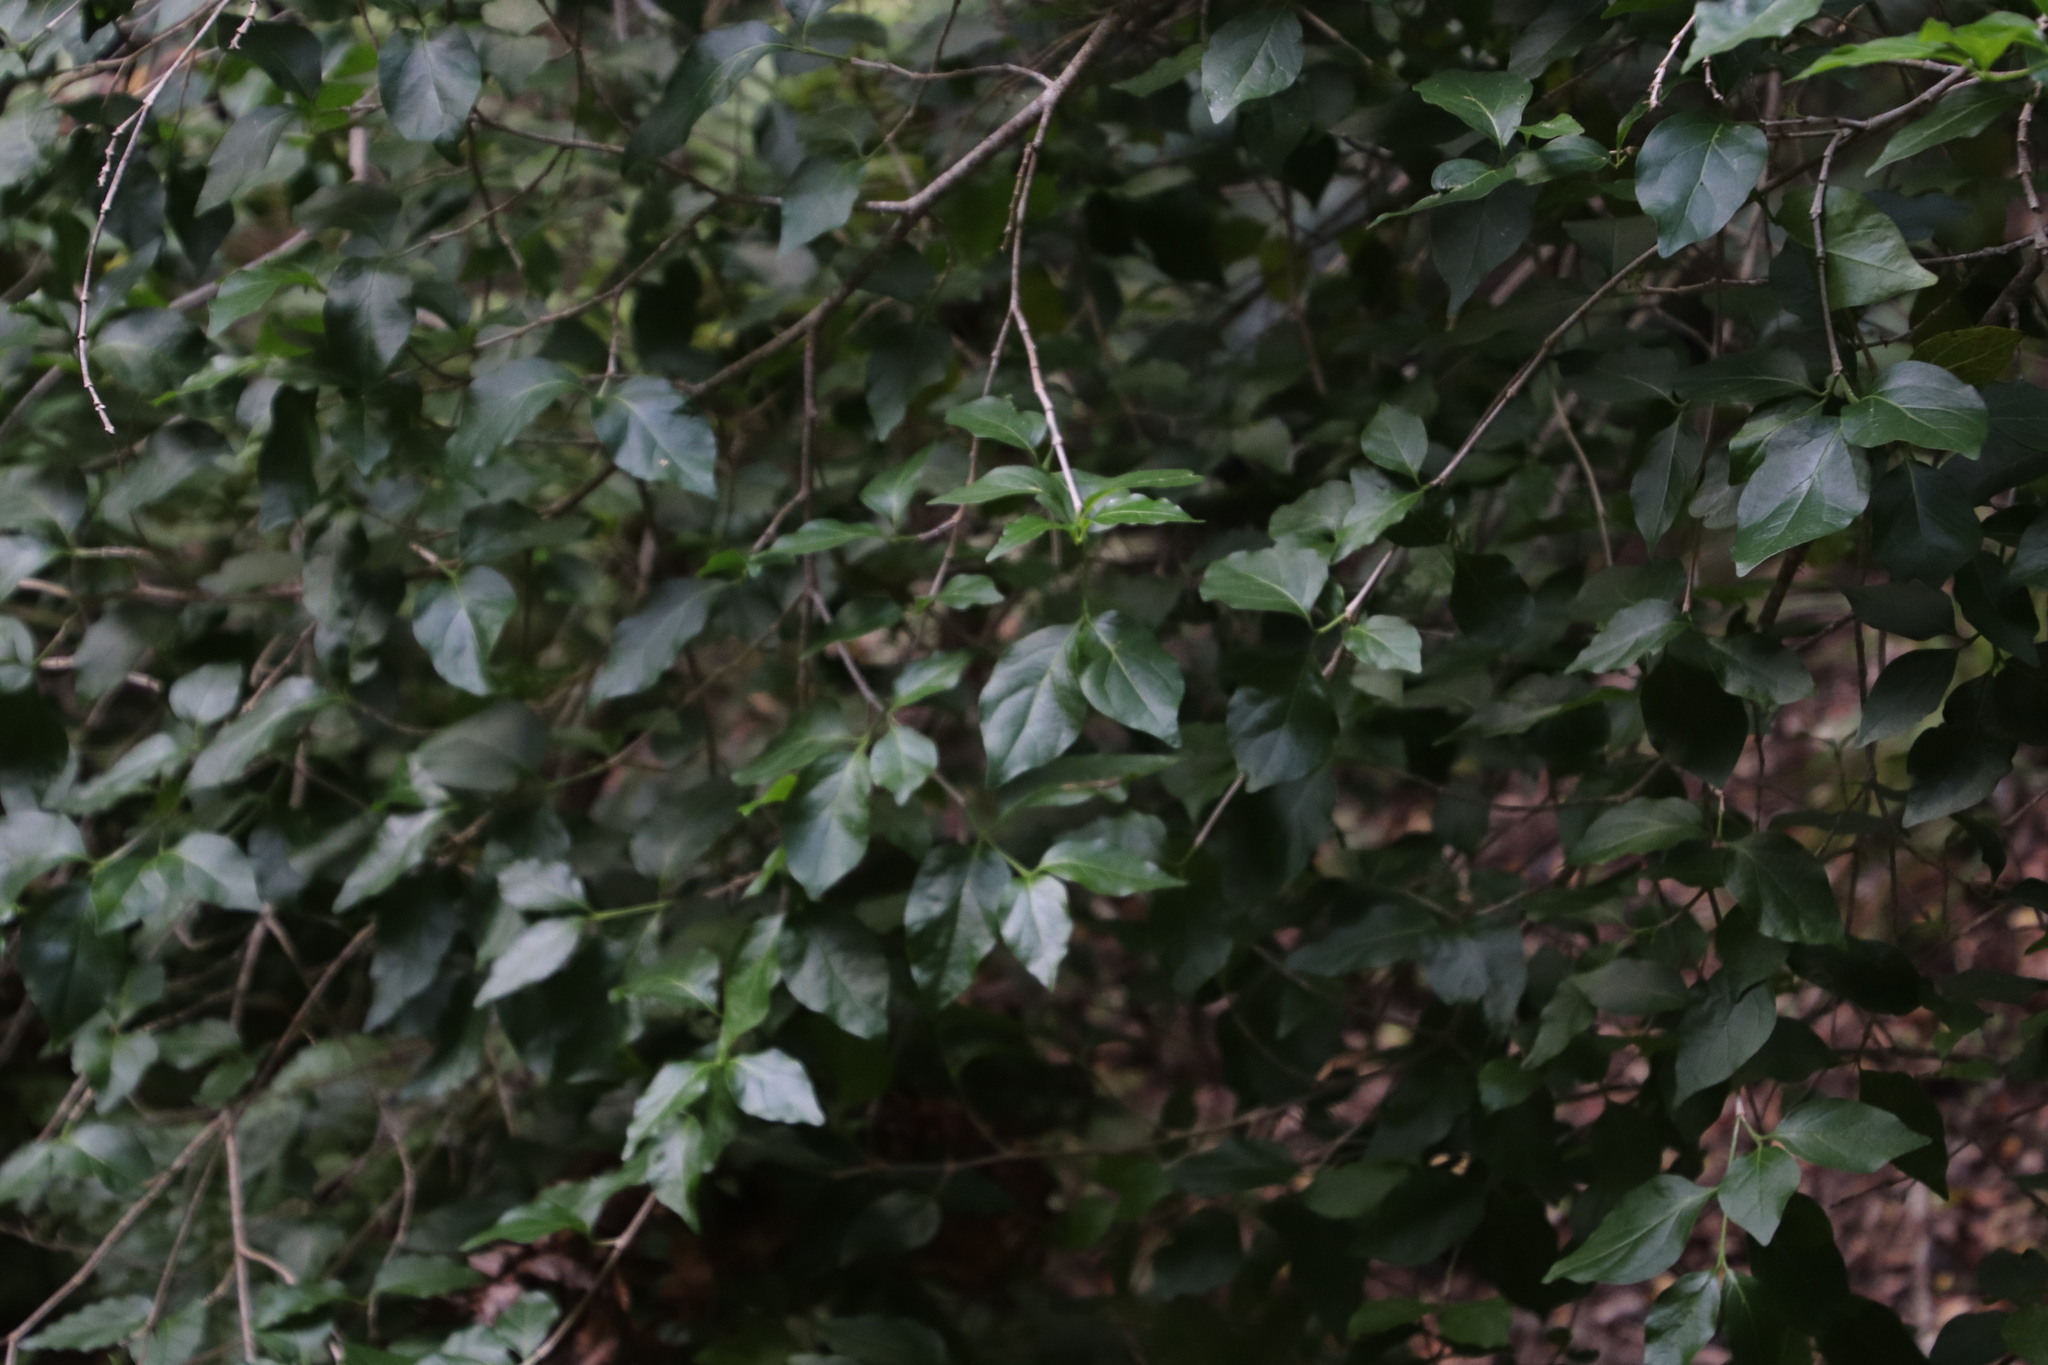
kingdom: Plantae
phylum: Tracheophyta
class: Magnoliopsida
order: Gentianales
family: Rubiaceae
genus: Afrocanthium
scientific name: Afrocanthium mundianum
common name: Rock-alder
